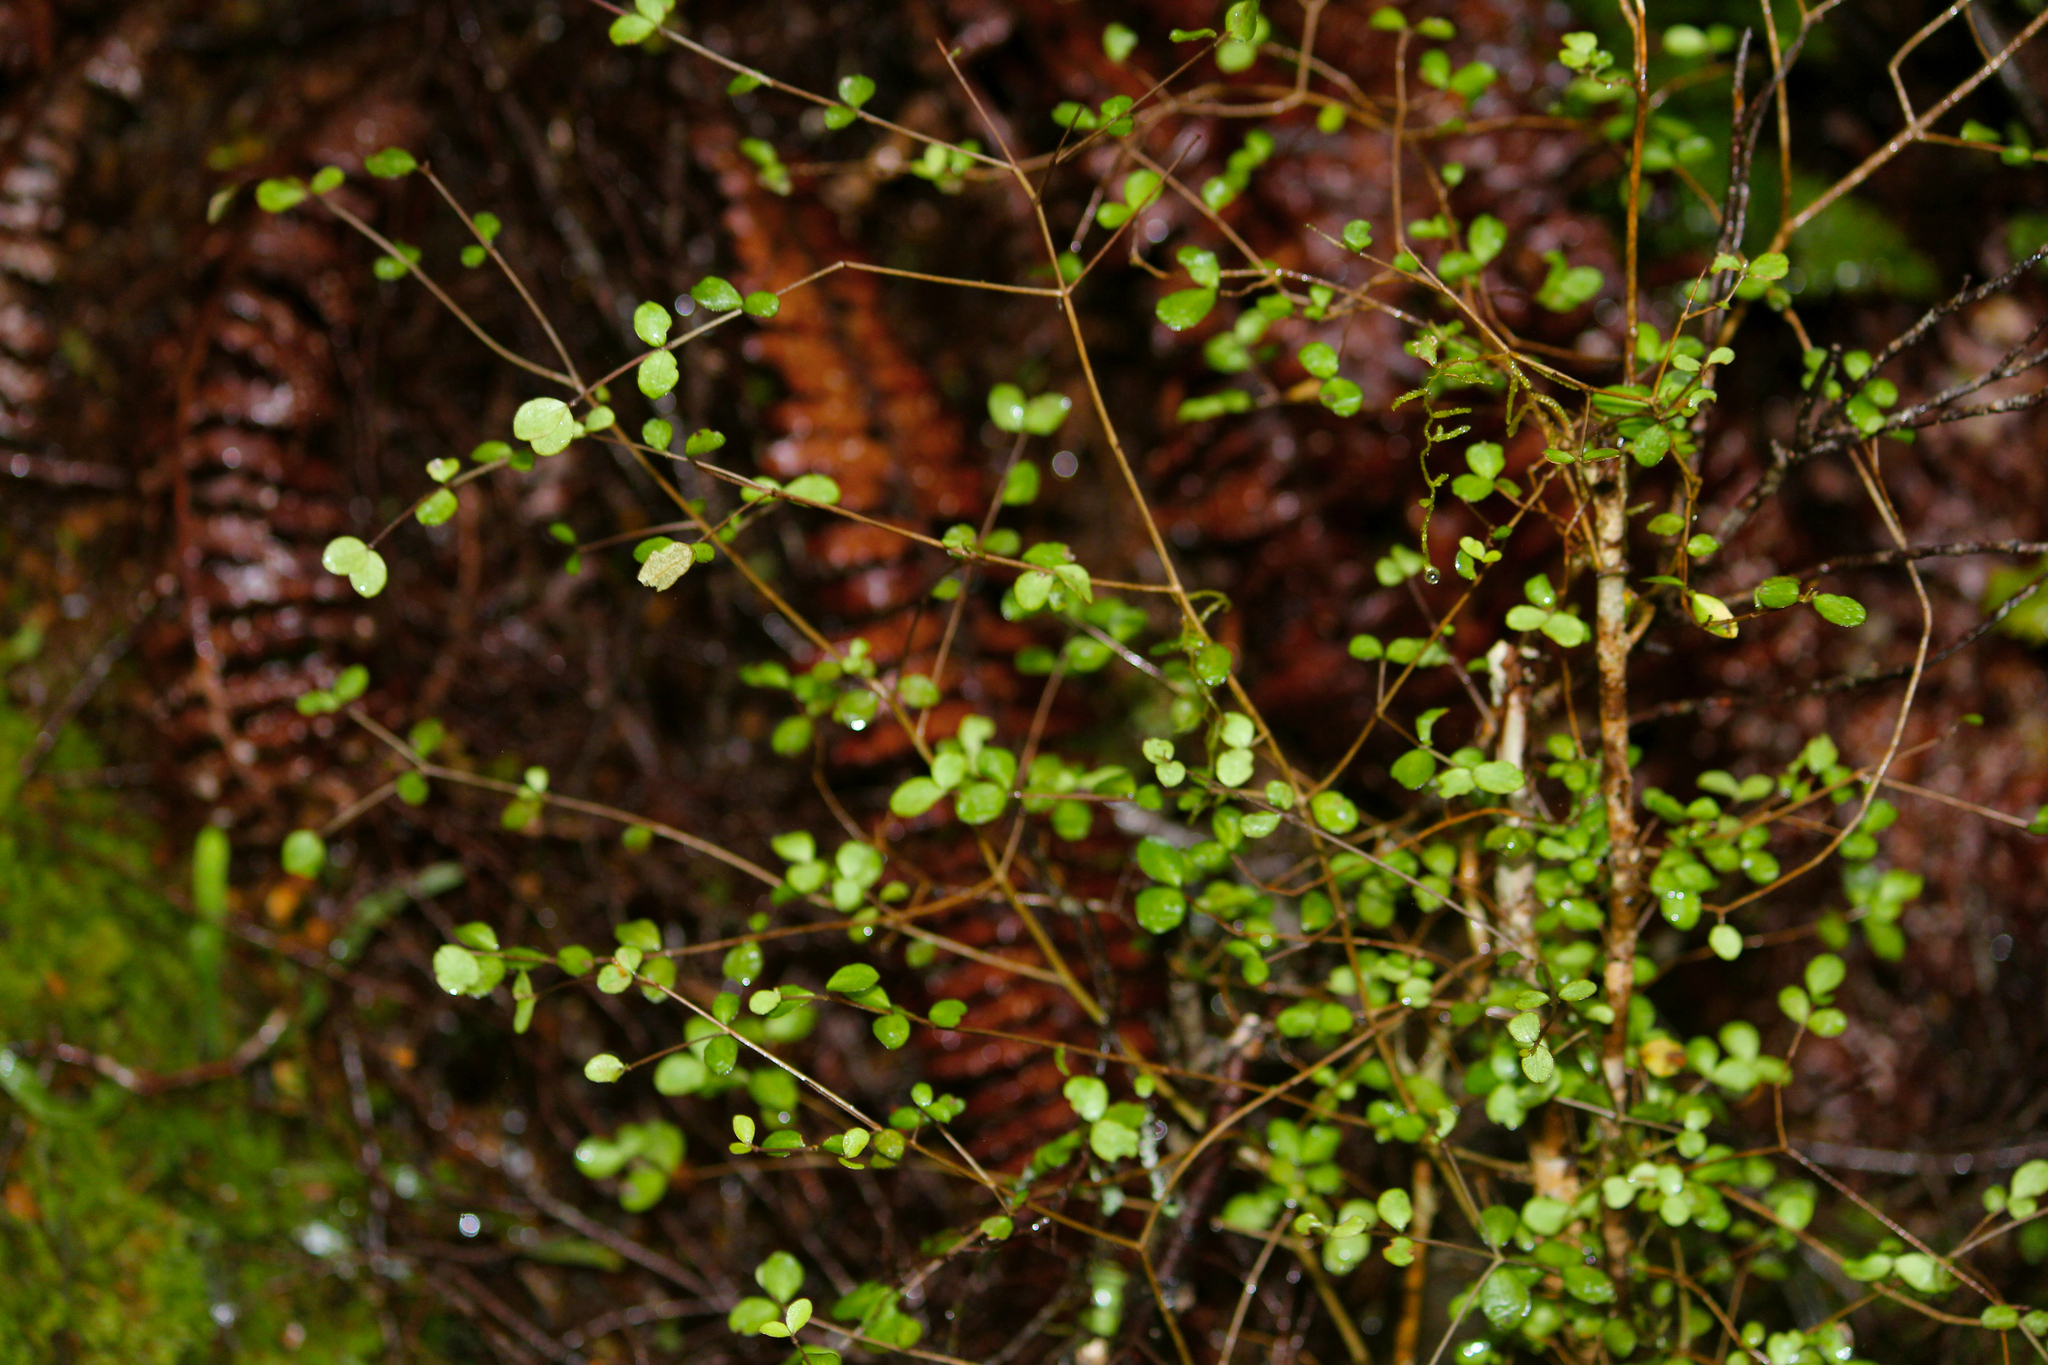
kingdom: Plantae
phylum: Tracheophyta
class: Magnoliopsida
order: Myrtales
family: Myrtaceae
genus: Neomyrtus
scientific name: Neomyrtus pedunculata
